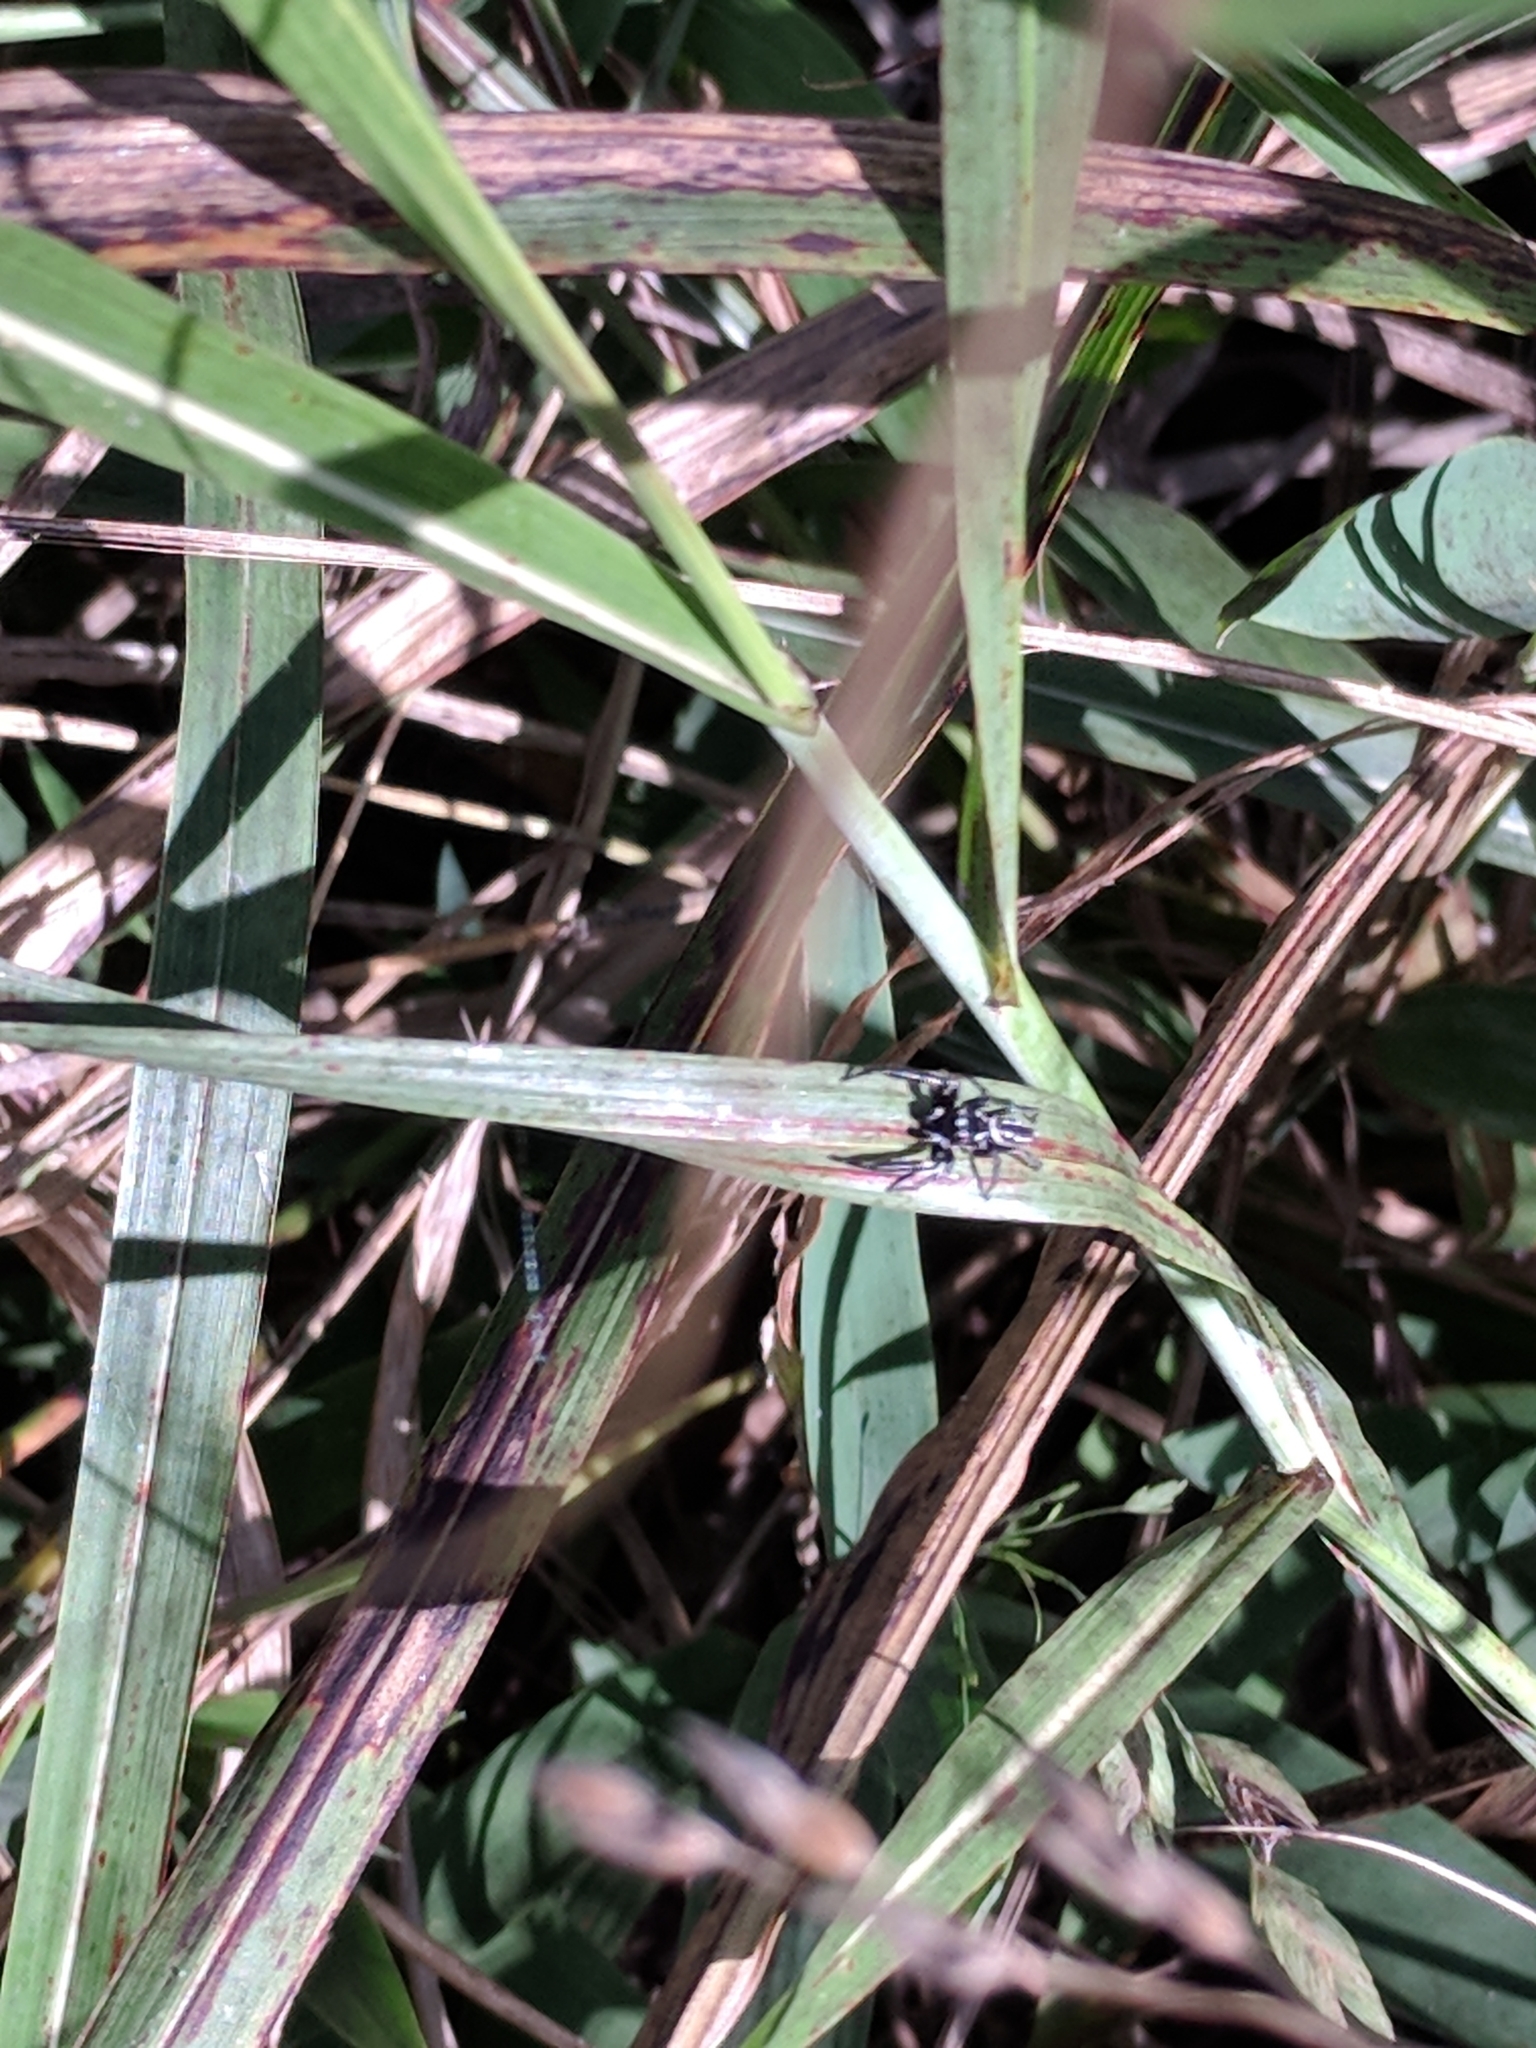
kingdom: Animalia
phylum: Arthropoda
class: Arachnida
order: Araneae
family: Salticidae
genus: Marpissa
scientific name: Marpissa formosa
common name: Short-bellied slender jumping spider
